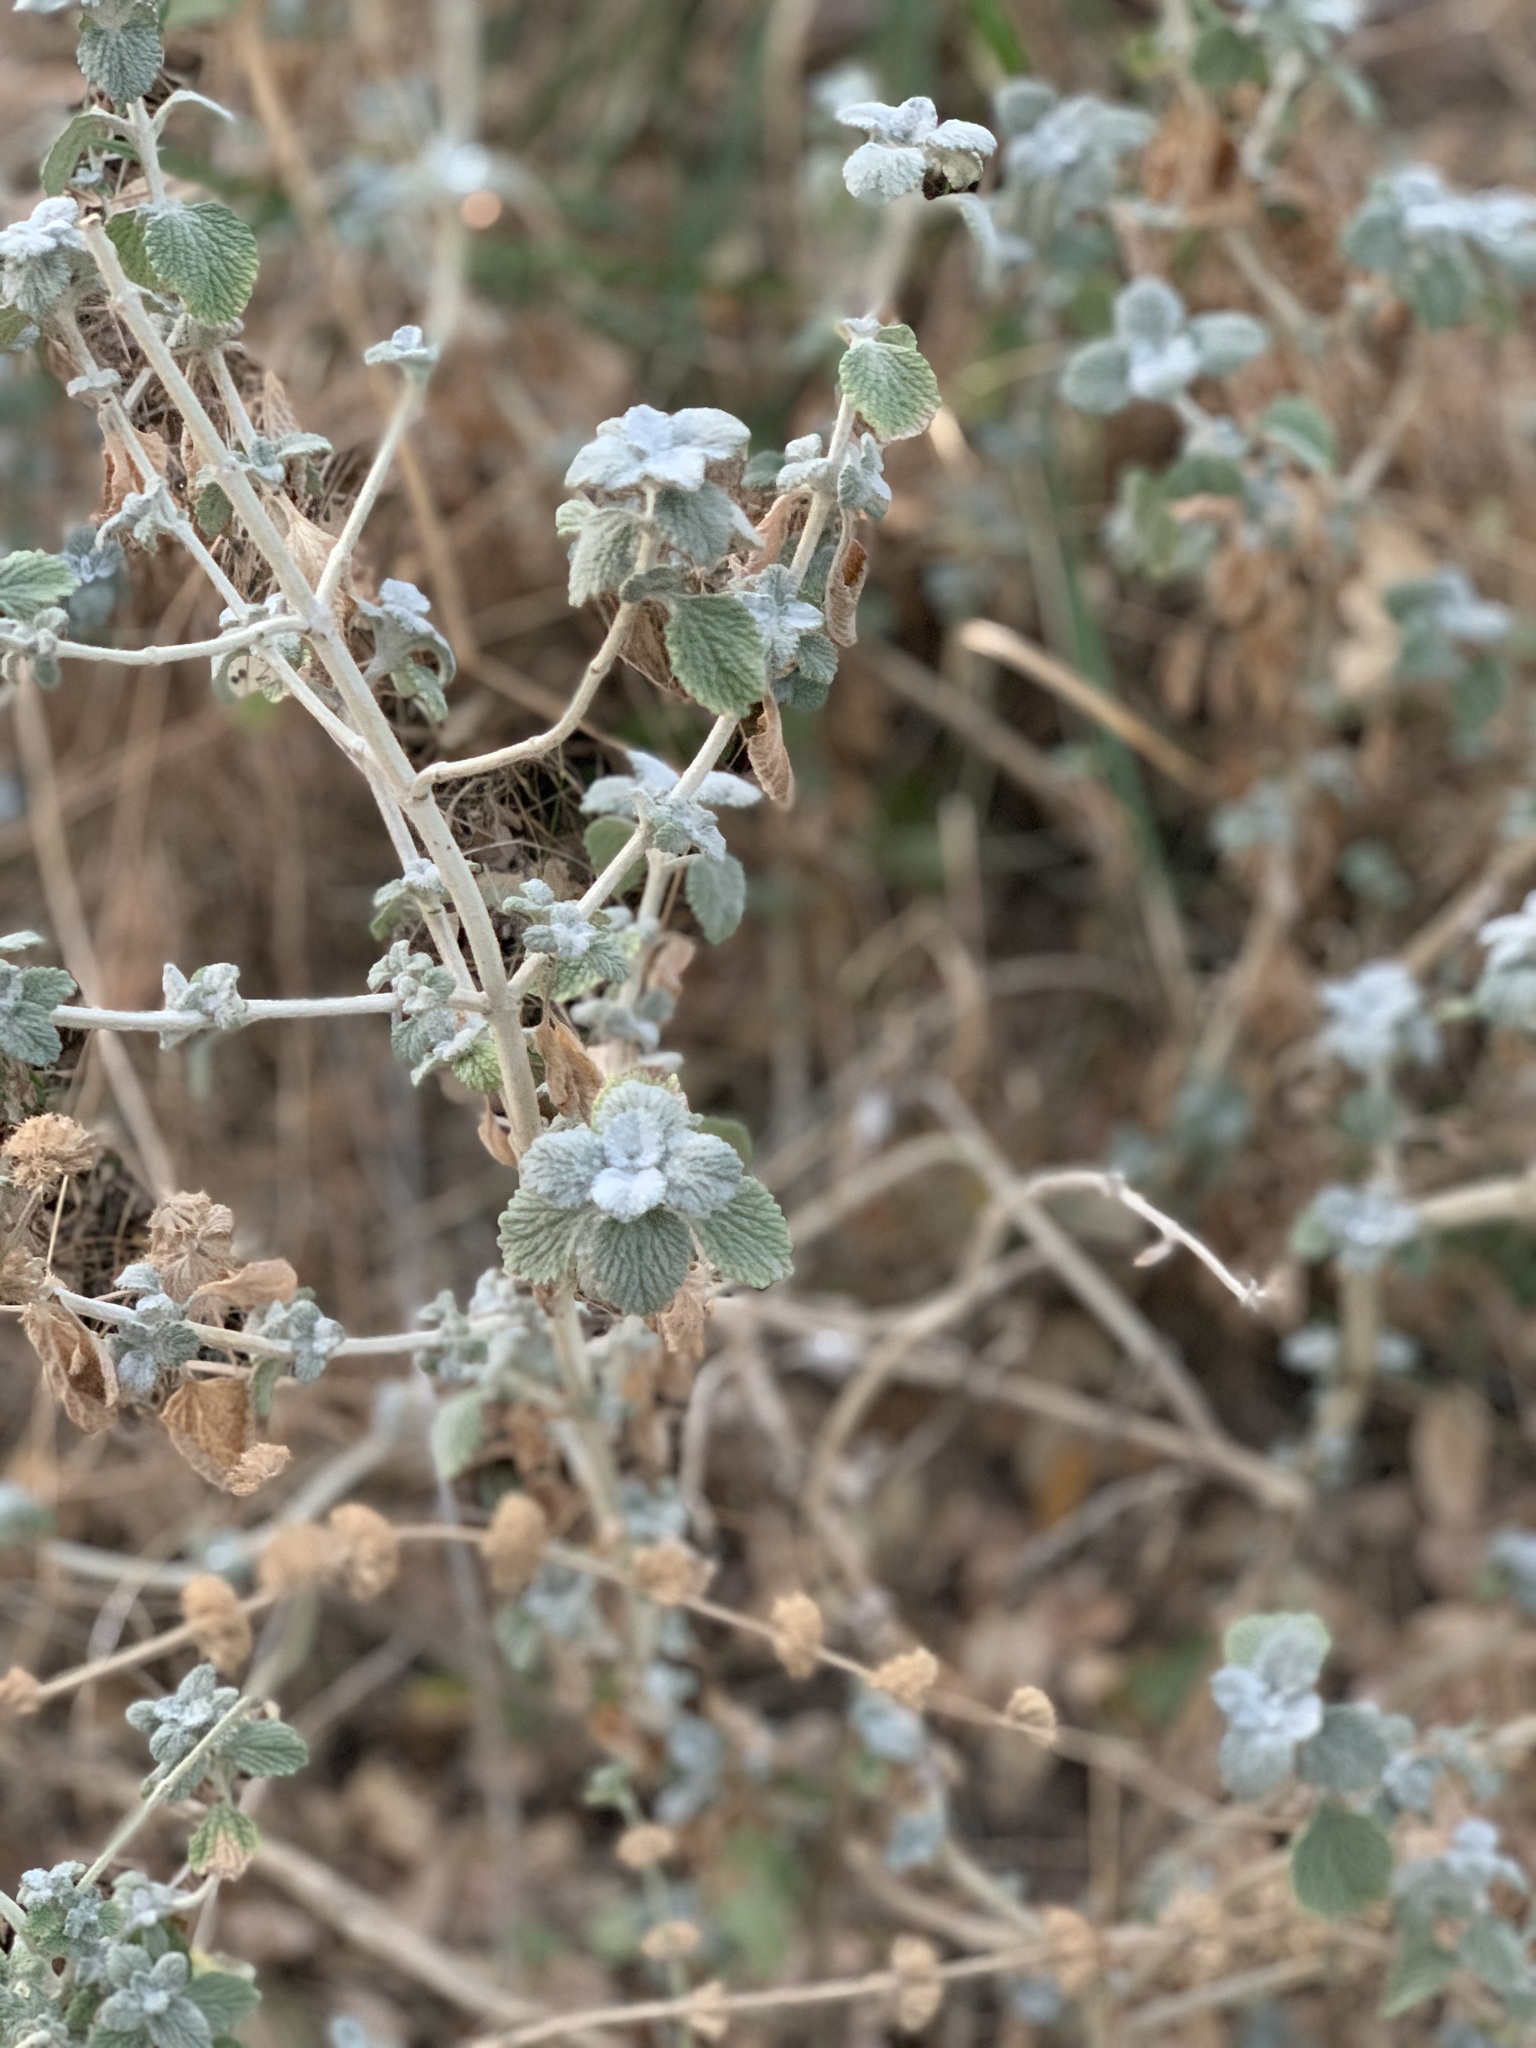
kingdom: Plantae
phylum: Tracheophyta
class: Magnoliopsida
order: Lamiales
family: Lamiaceae
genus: Marrubium
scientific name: Marrubium vulgare
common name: Horehound
